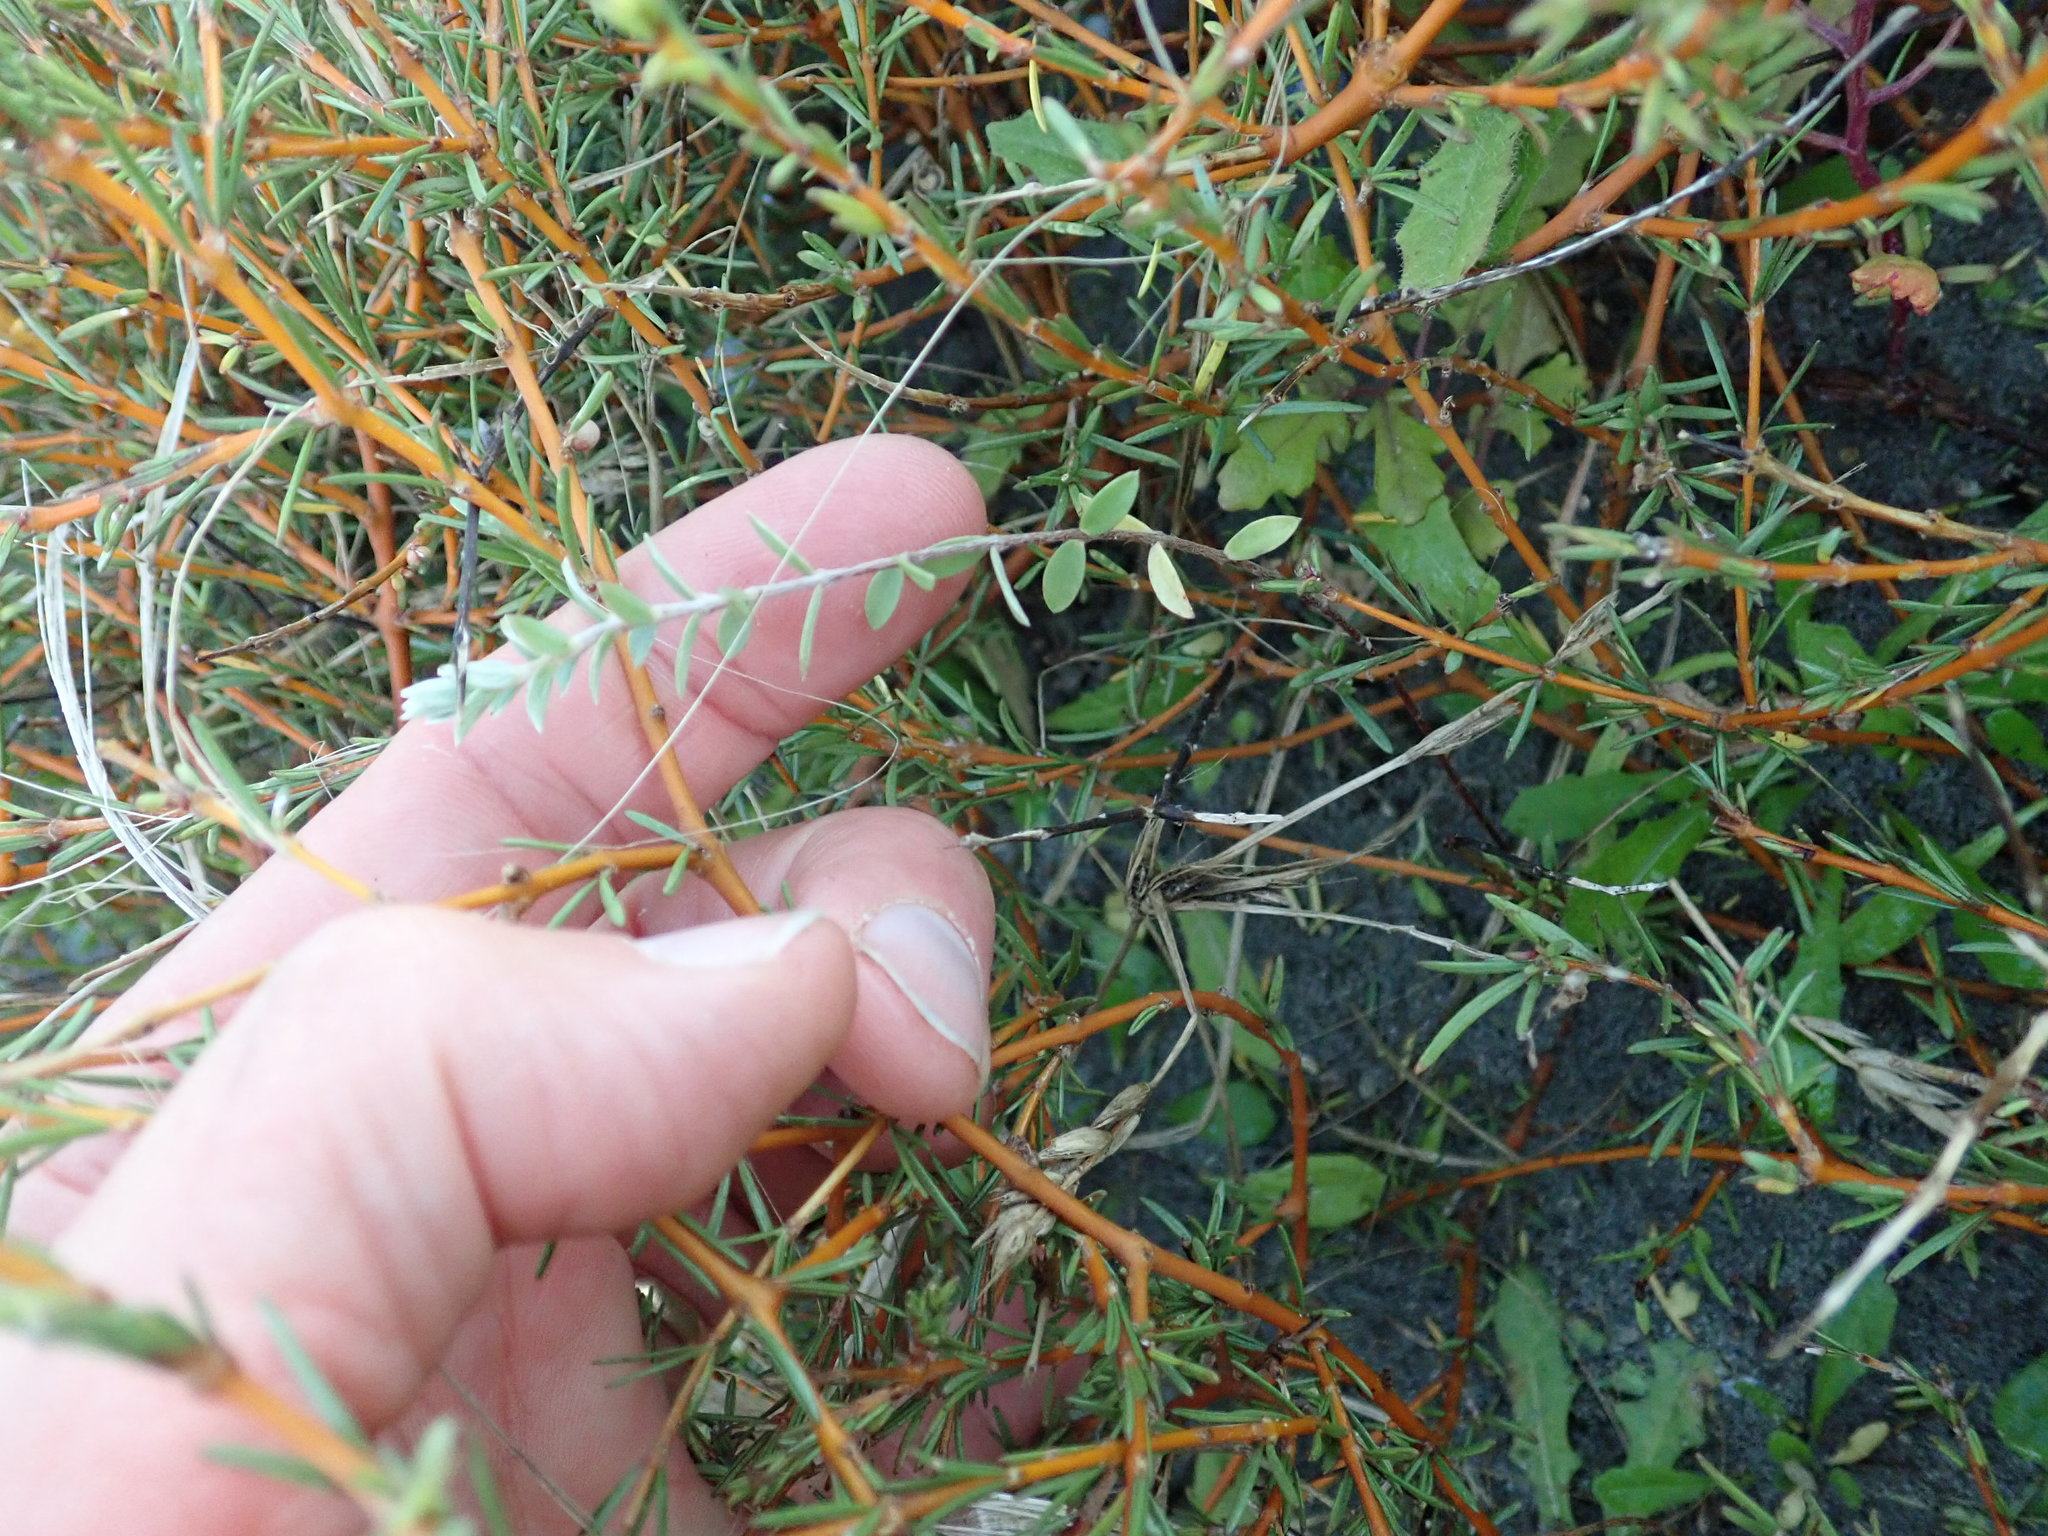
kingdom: Plantae
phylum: Tracheophyta
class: Magnoliopsida
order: Malvales
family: Thymelaeaceae
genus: Pimelea
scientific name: Pimelea villosa
